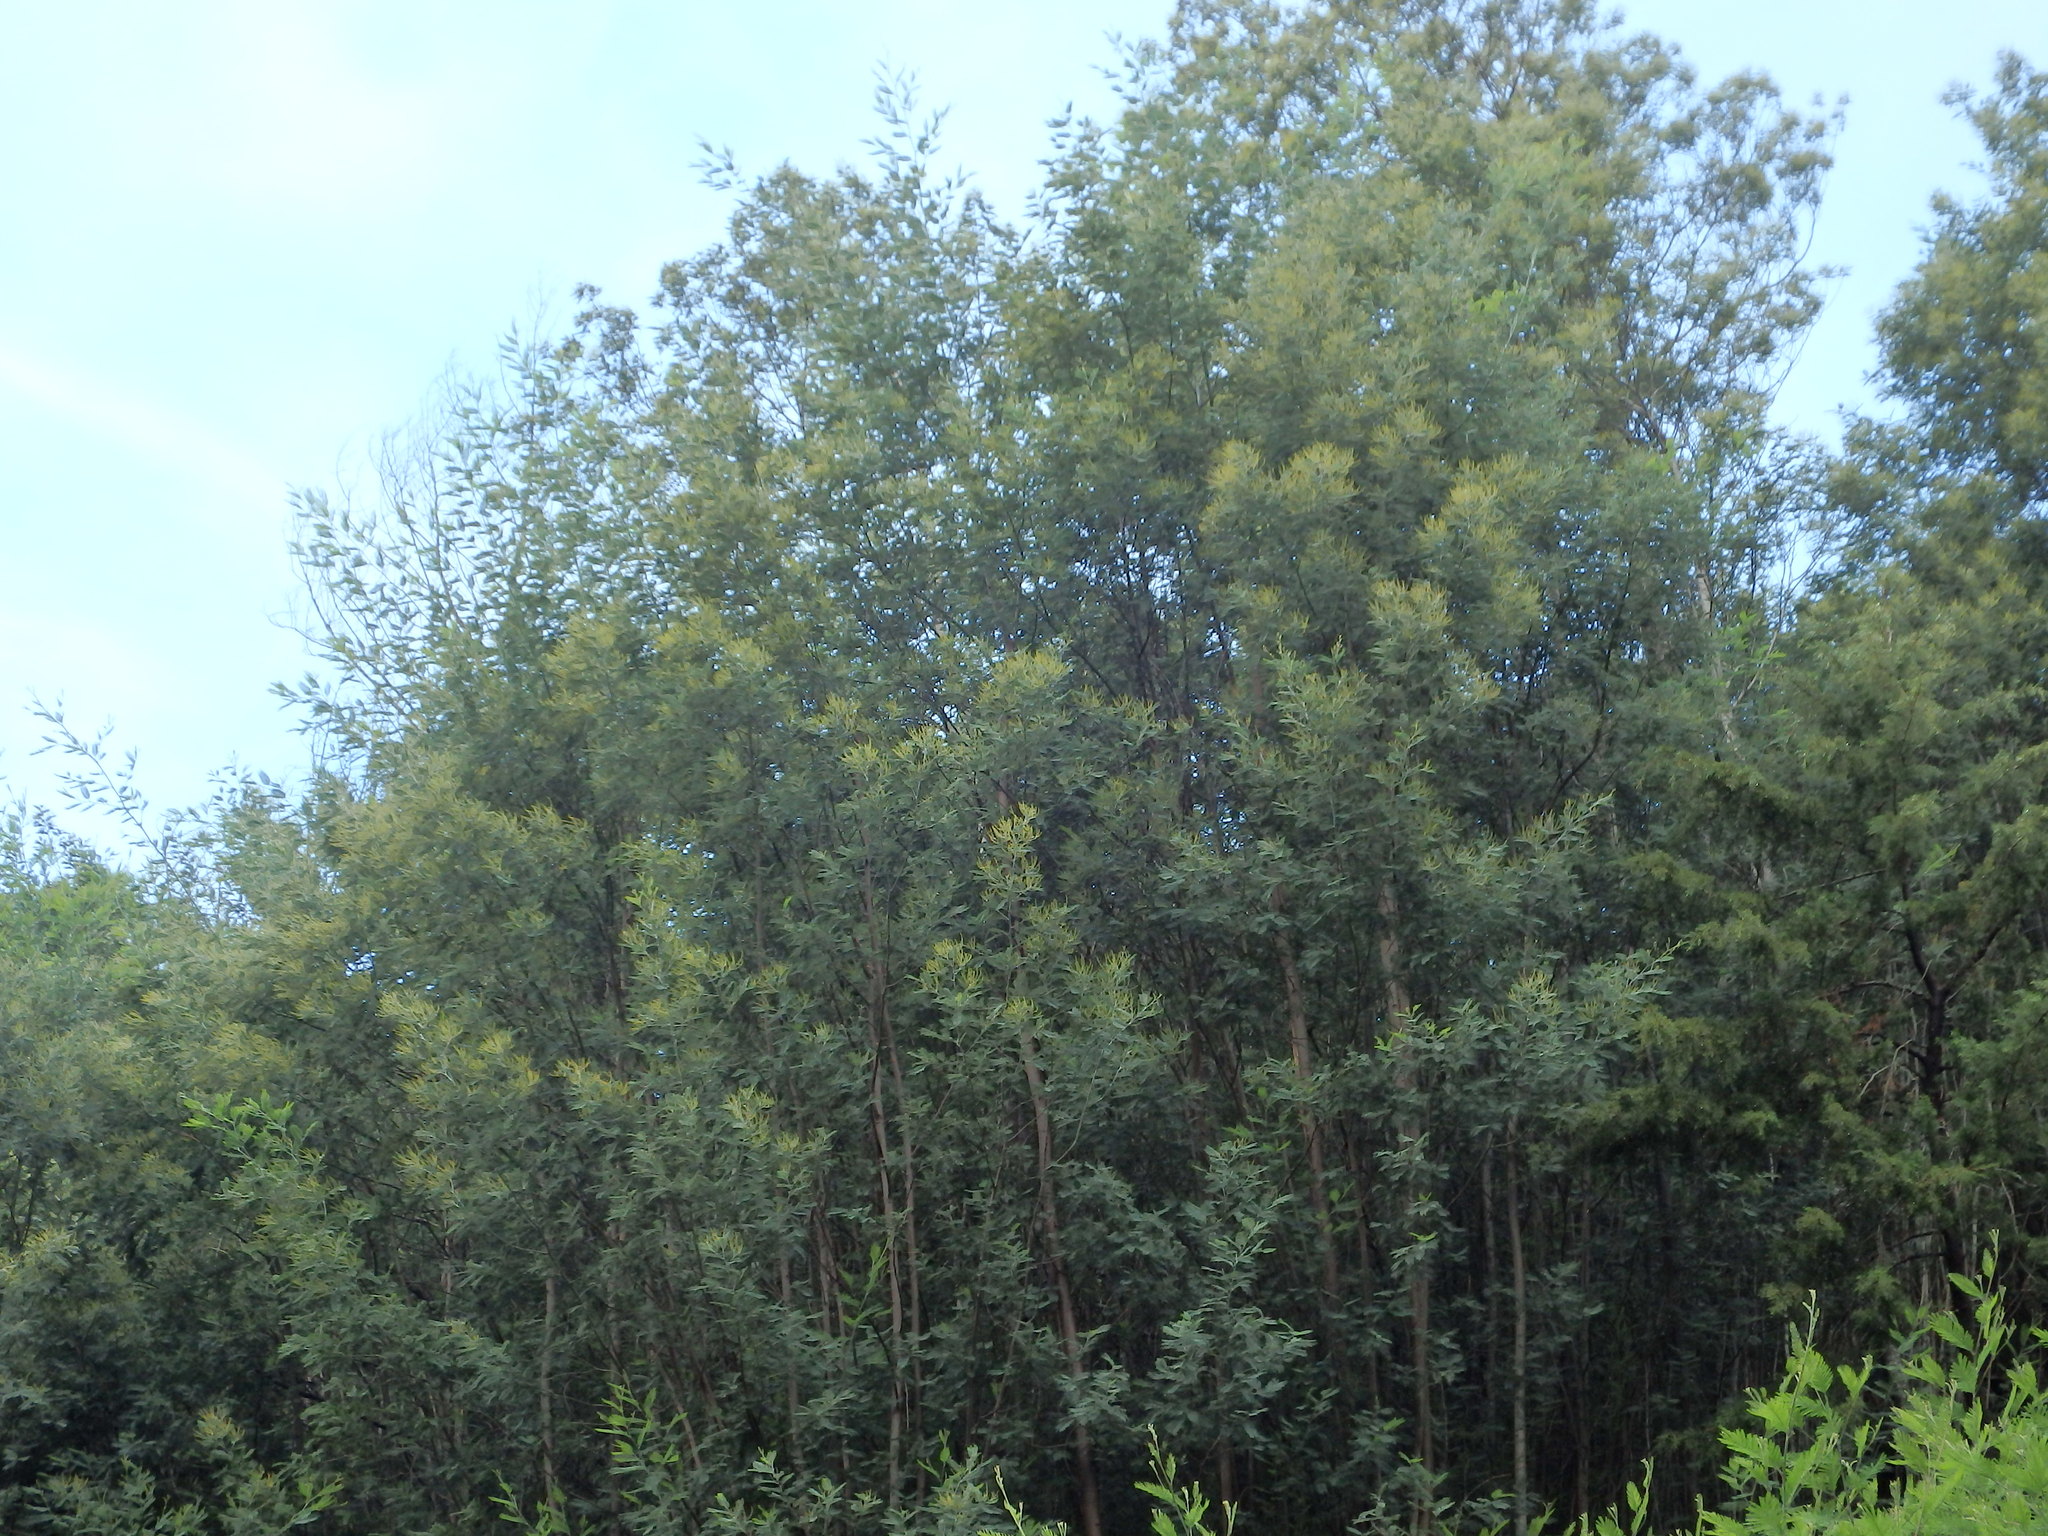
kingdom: Plantae
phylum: Tracheophyta
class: Magnoliopsida
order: Fabales
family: Fabaceae
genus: Acacia
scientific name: Acacia dealbata
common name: Silver wattle
